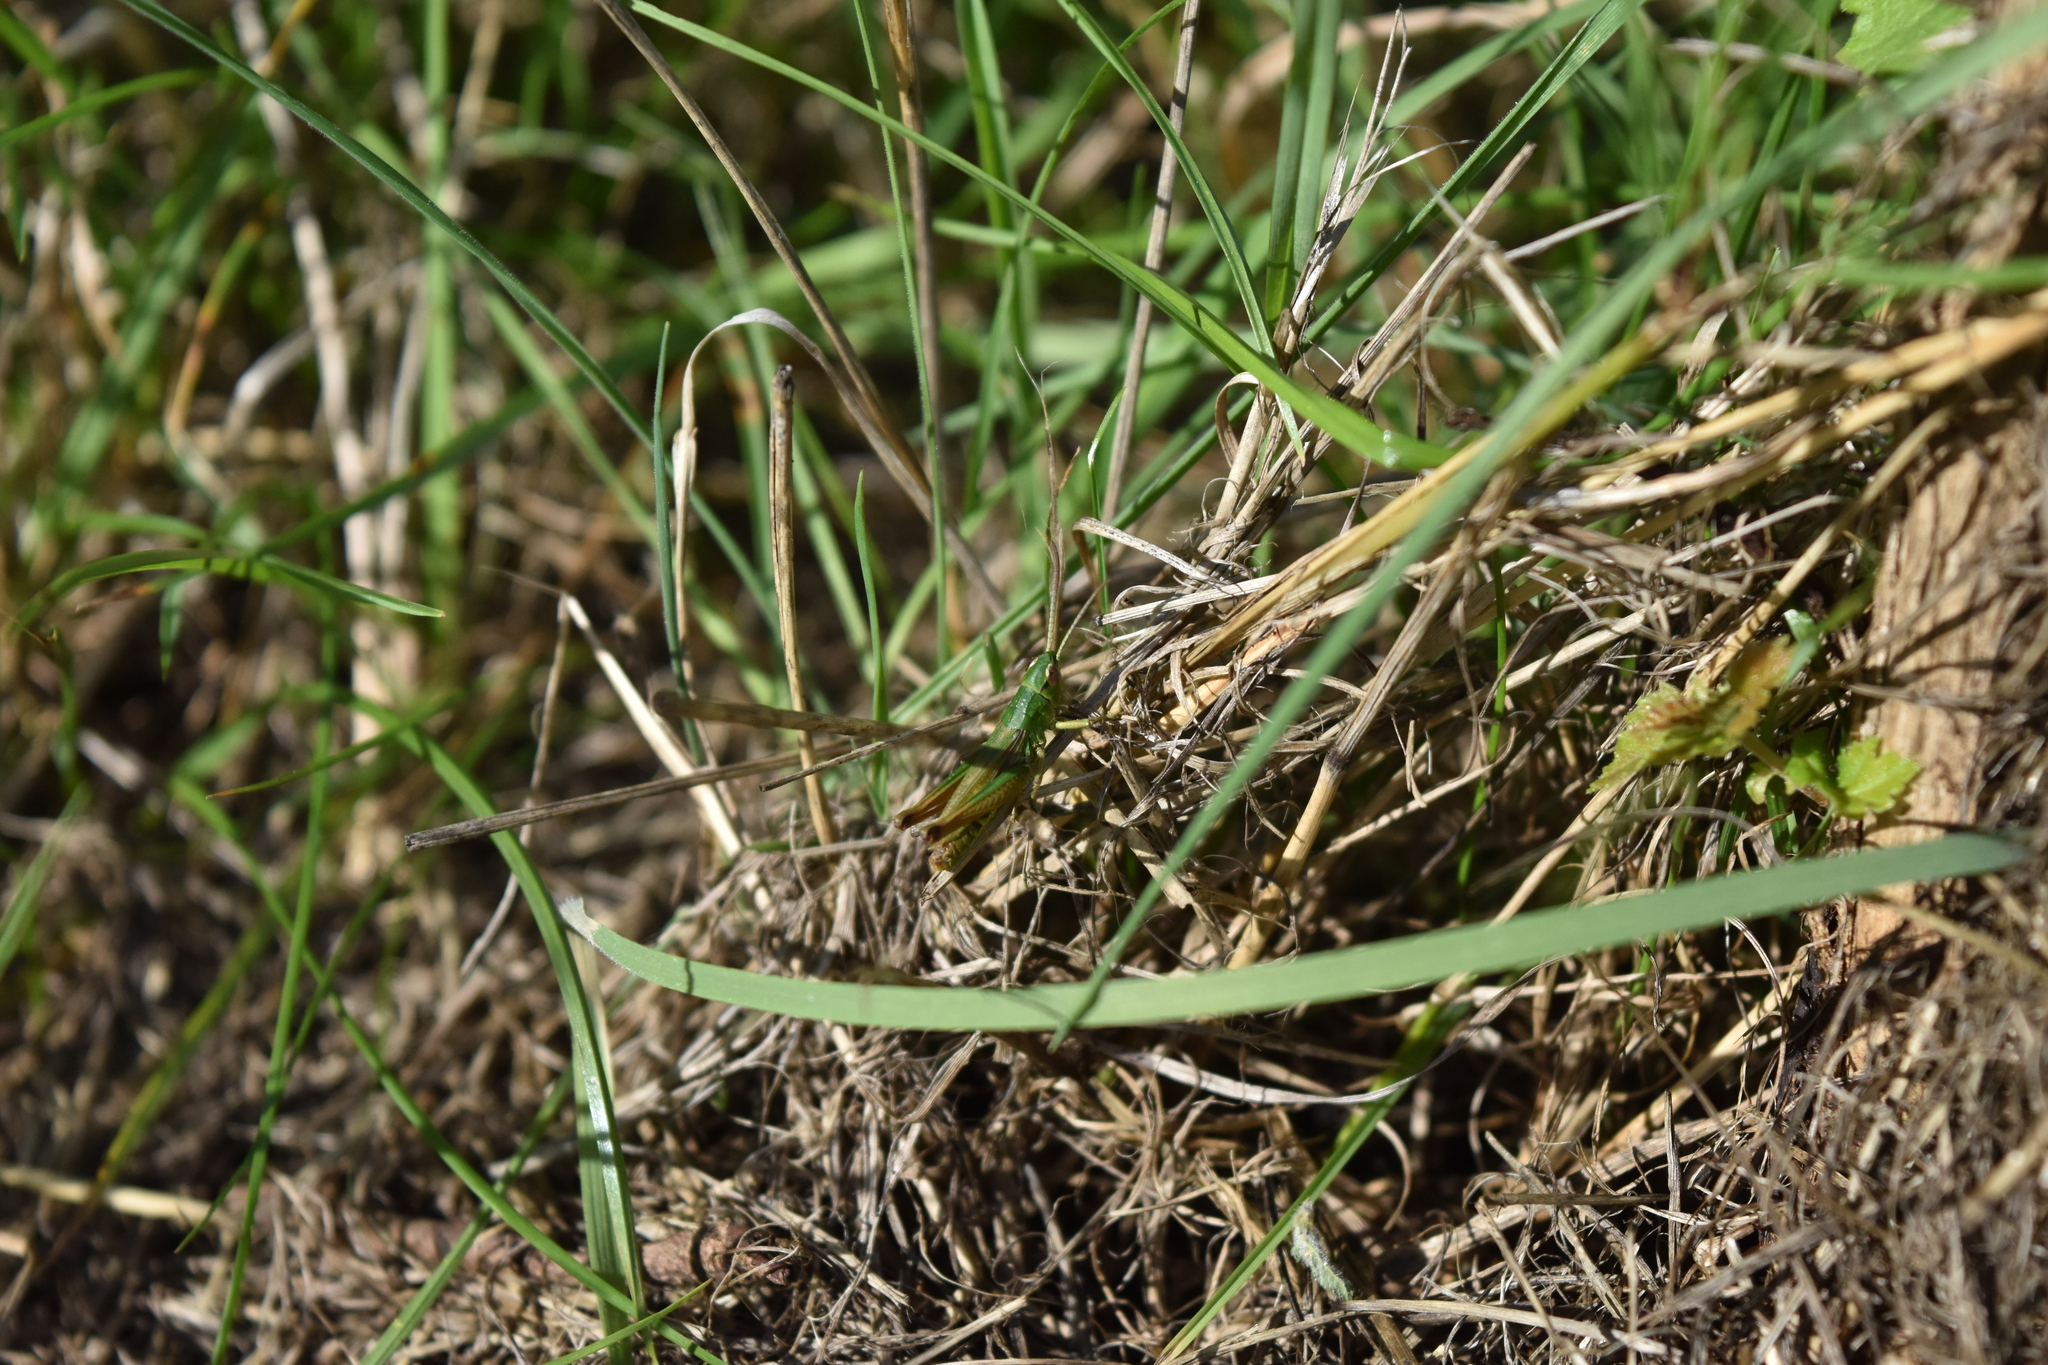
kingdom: Animalia
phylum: Arthropoda
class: Insecta
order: Orthoptera
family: Acrididae
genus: Pseudochorthippus
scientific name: Pseudochorthippus parallelus
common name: Meadow grasshopper
